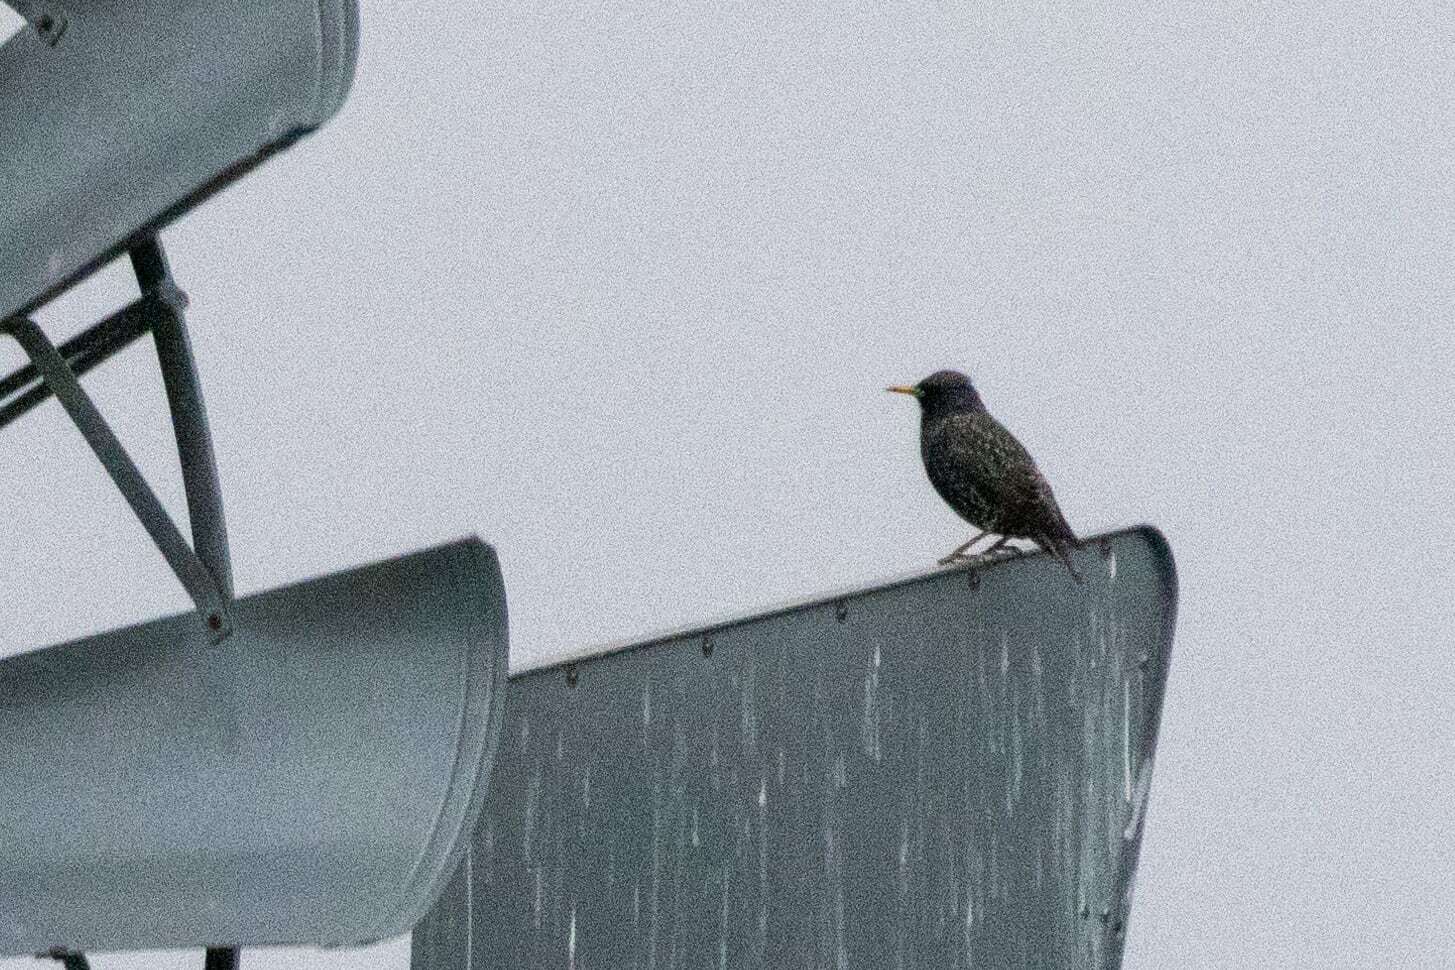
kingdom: Animalia
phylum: Chordata
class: Aves
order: Passeriformes
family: Sturnidae
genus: Sturnus
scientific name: Sturnus vulgaris
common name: Common starling
